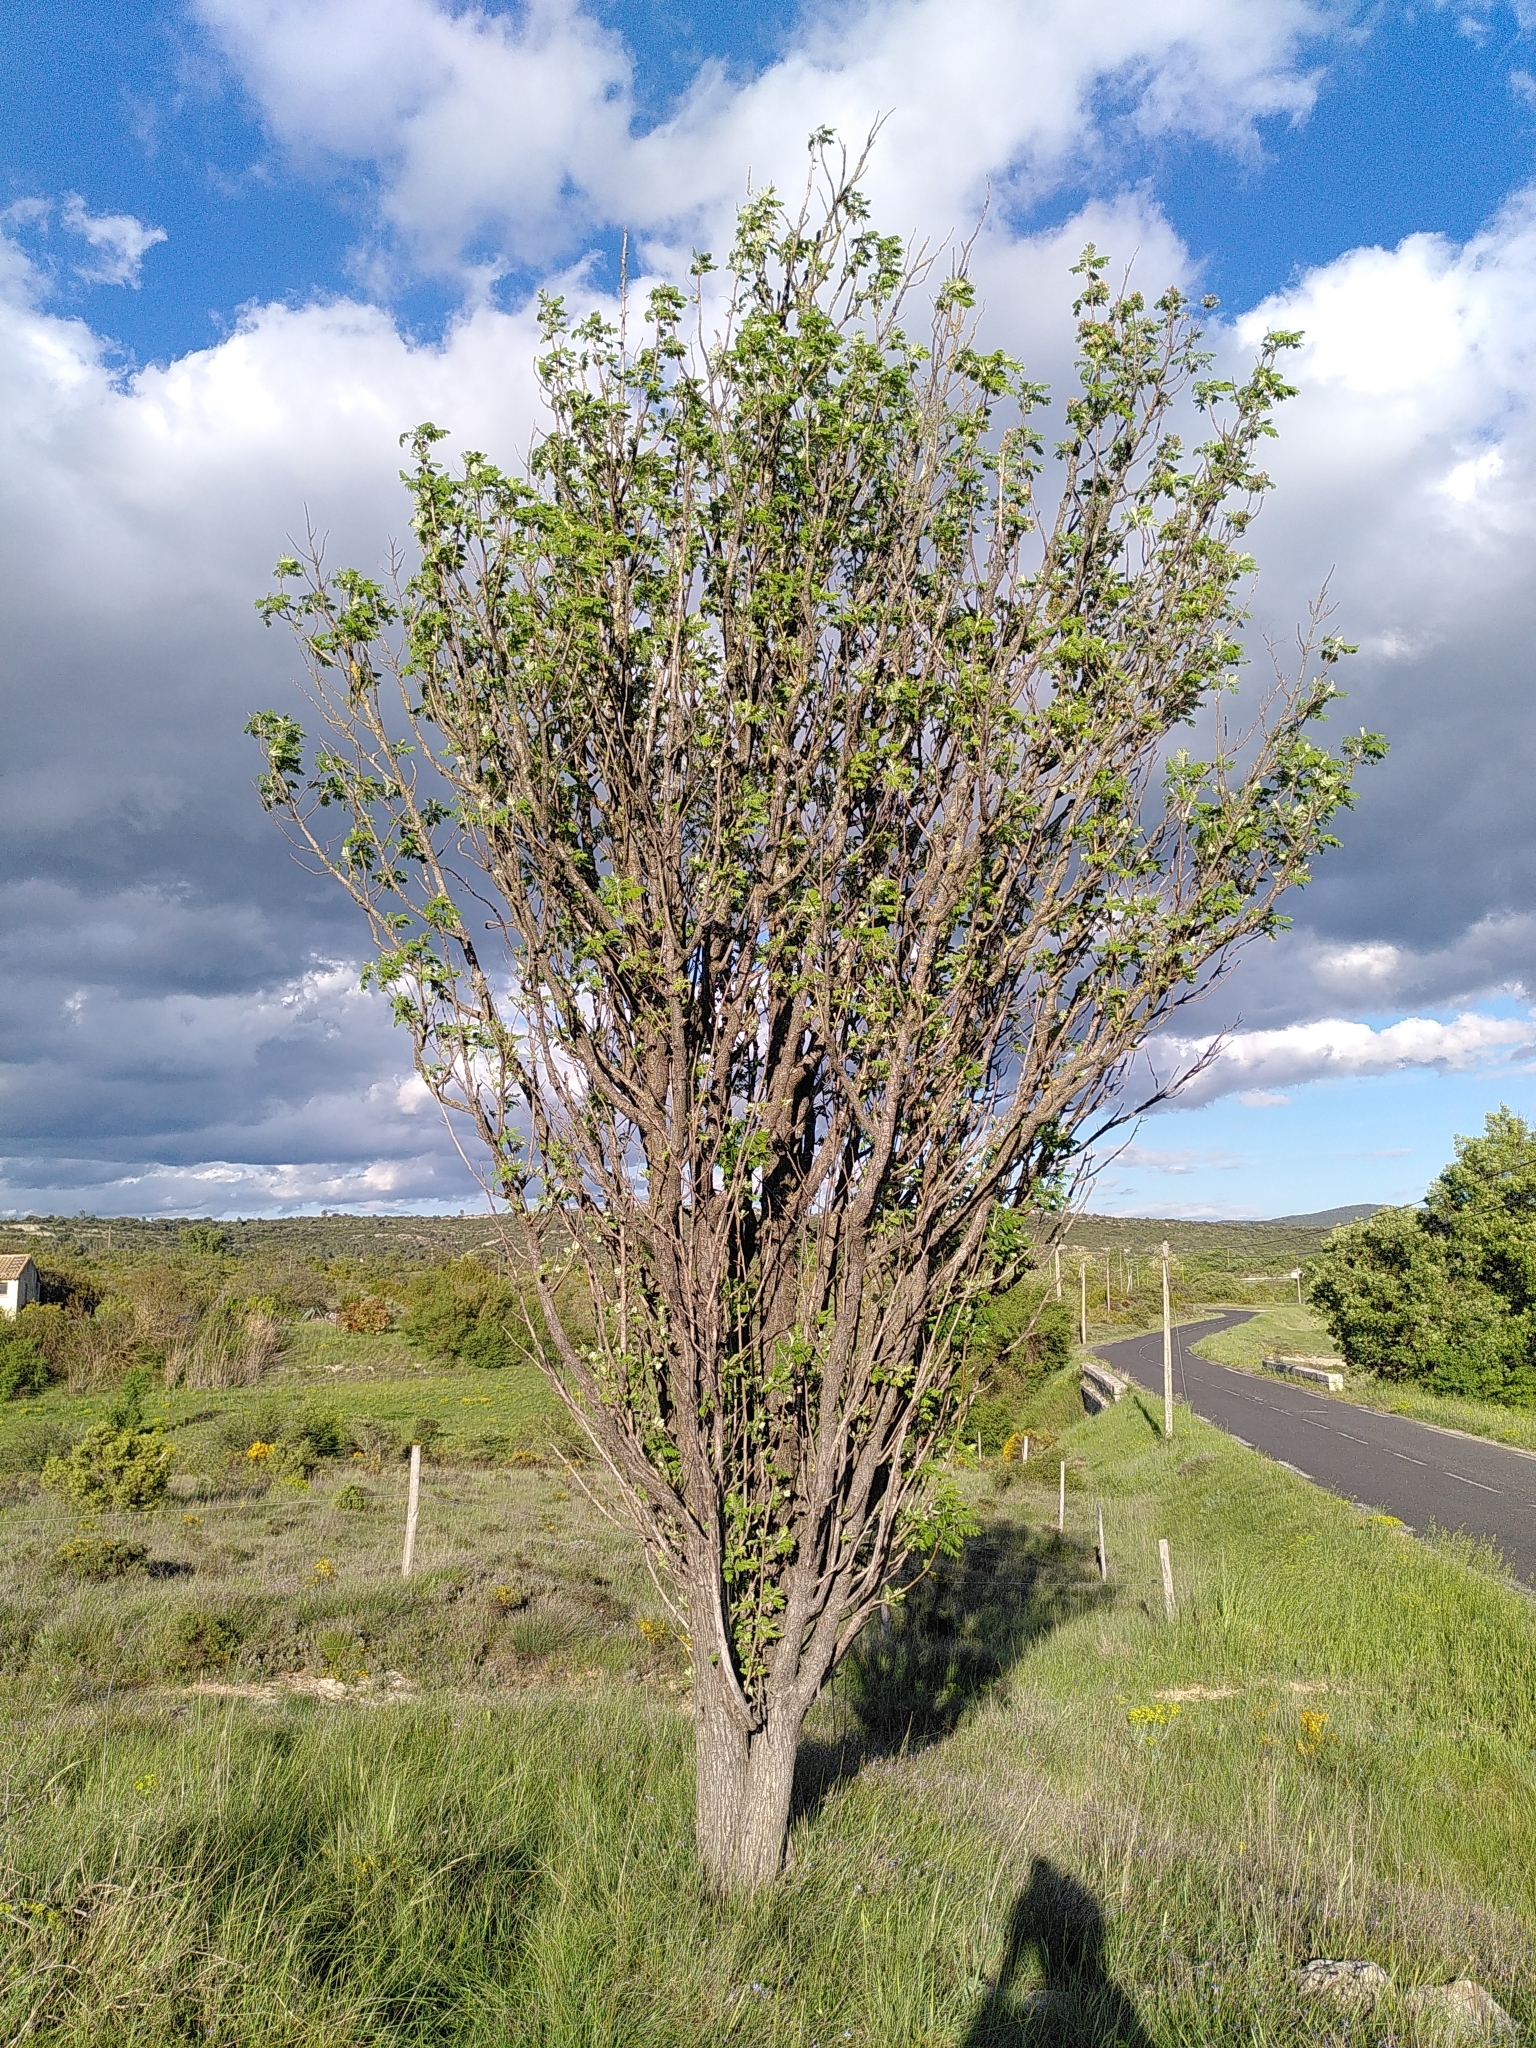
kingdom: Plantae
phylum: Tracheophyta
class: Magnoliopsida
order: Rosales
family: Rosaceae
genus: Sorbus
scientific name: Sorbus aucuparia
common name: Rowan
